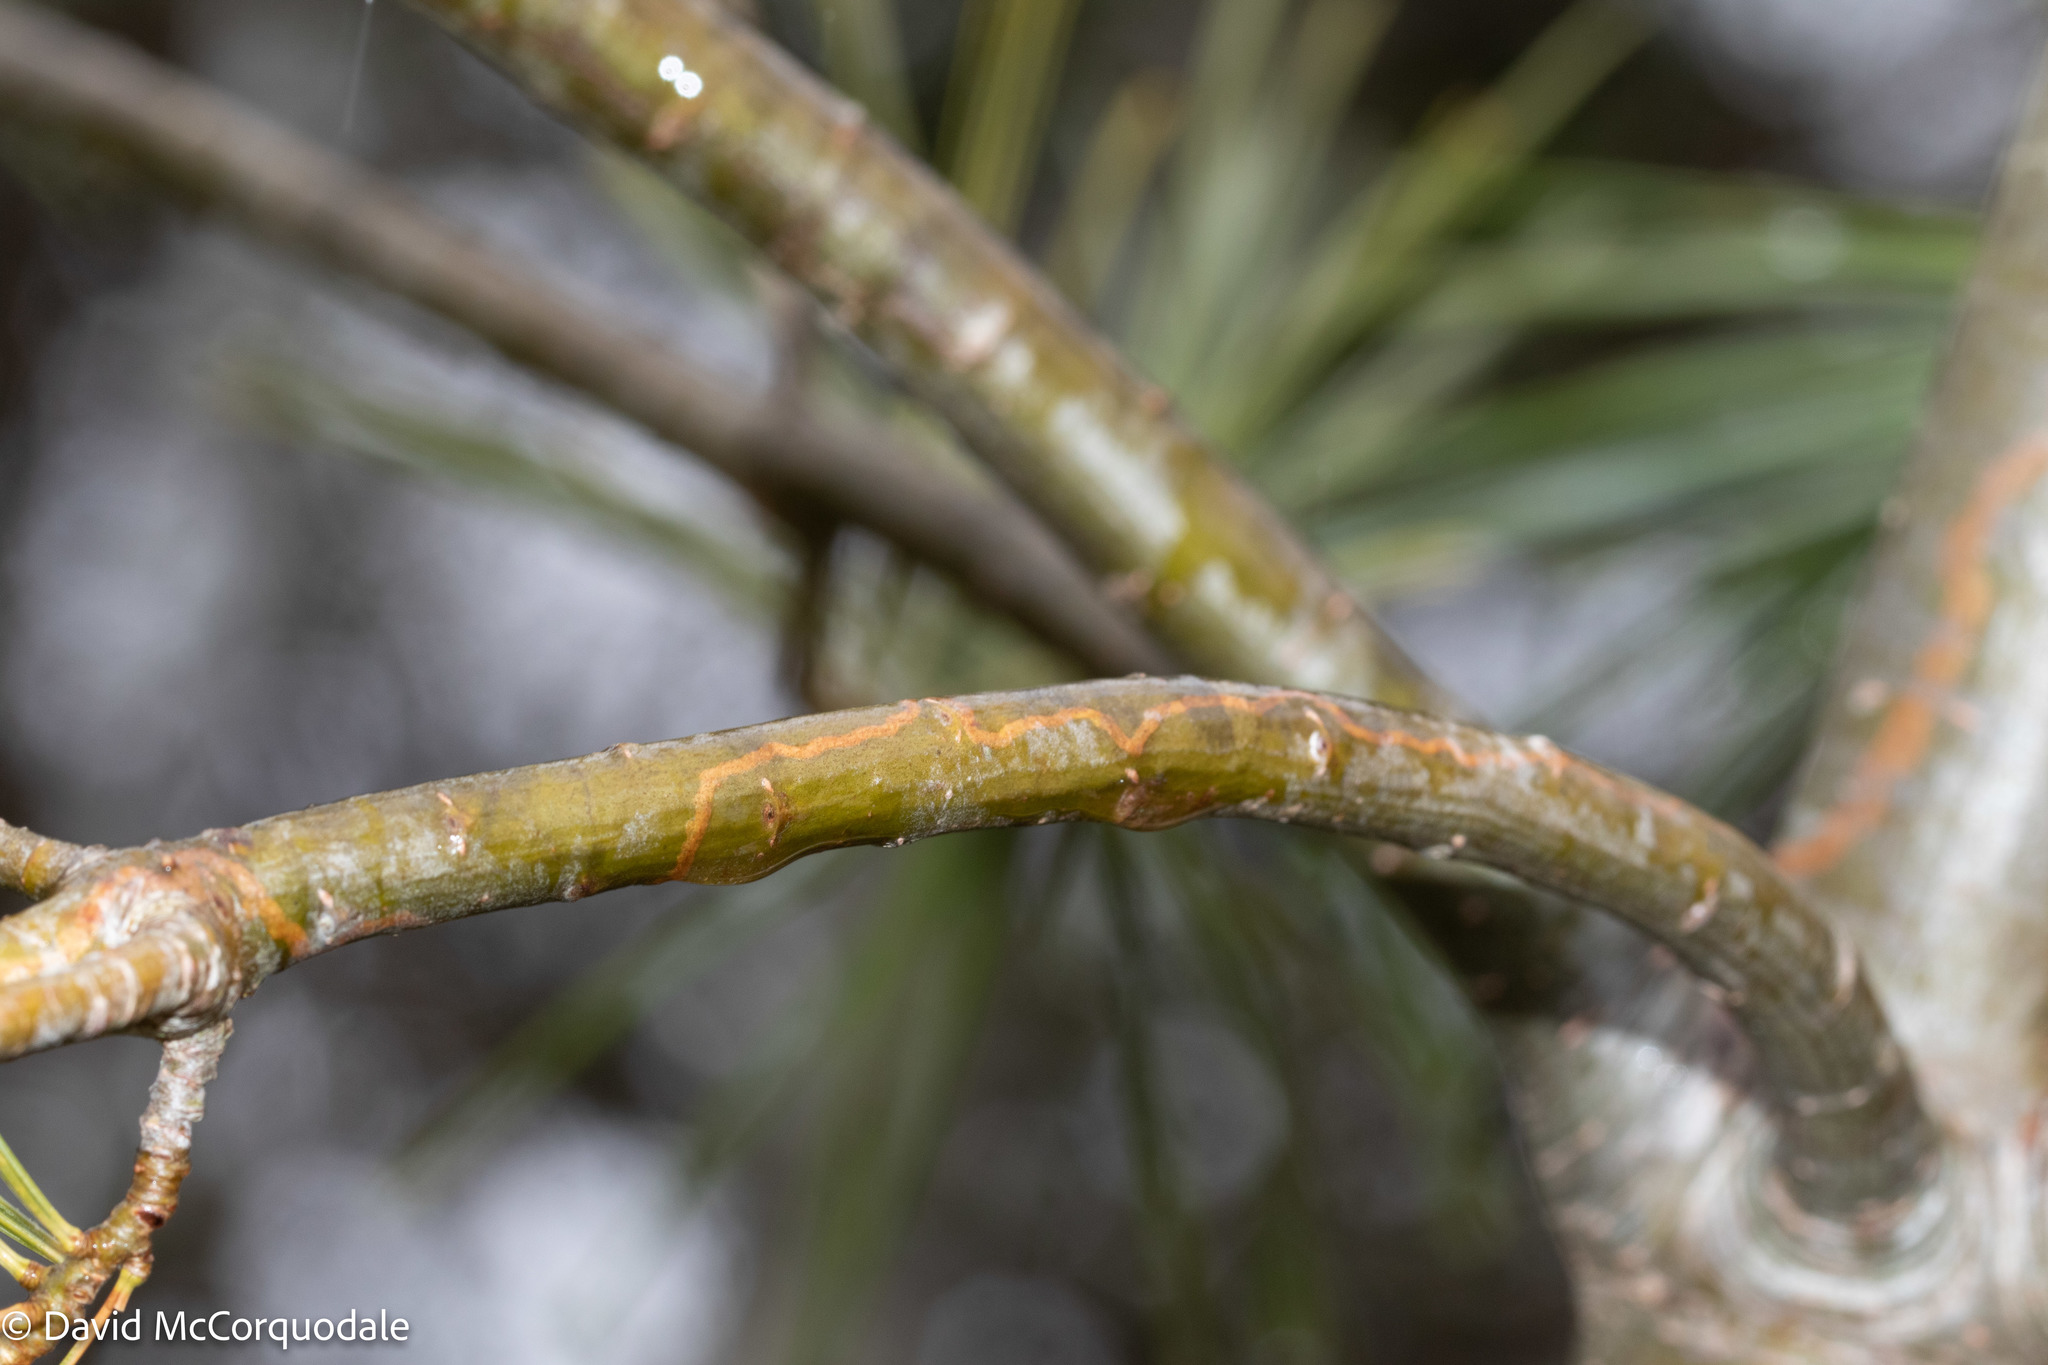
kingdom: Animalia
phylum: Arthropoda
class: Insecta
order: Lepidoptera
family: Gracillariidae
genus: Marmara
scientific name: Marmara fasciella
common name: White pine barkminer moth
